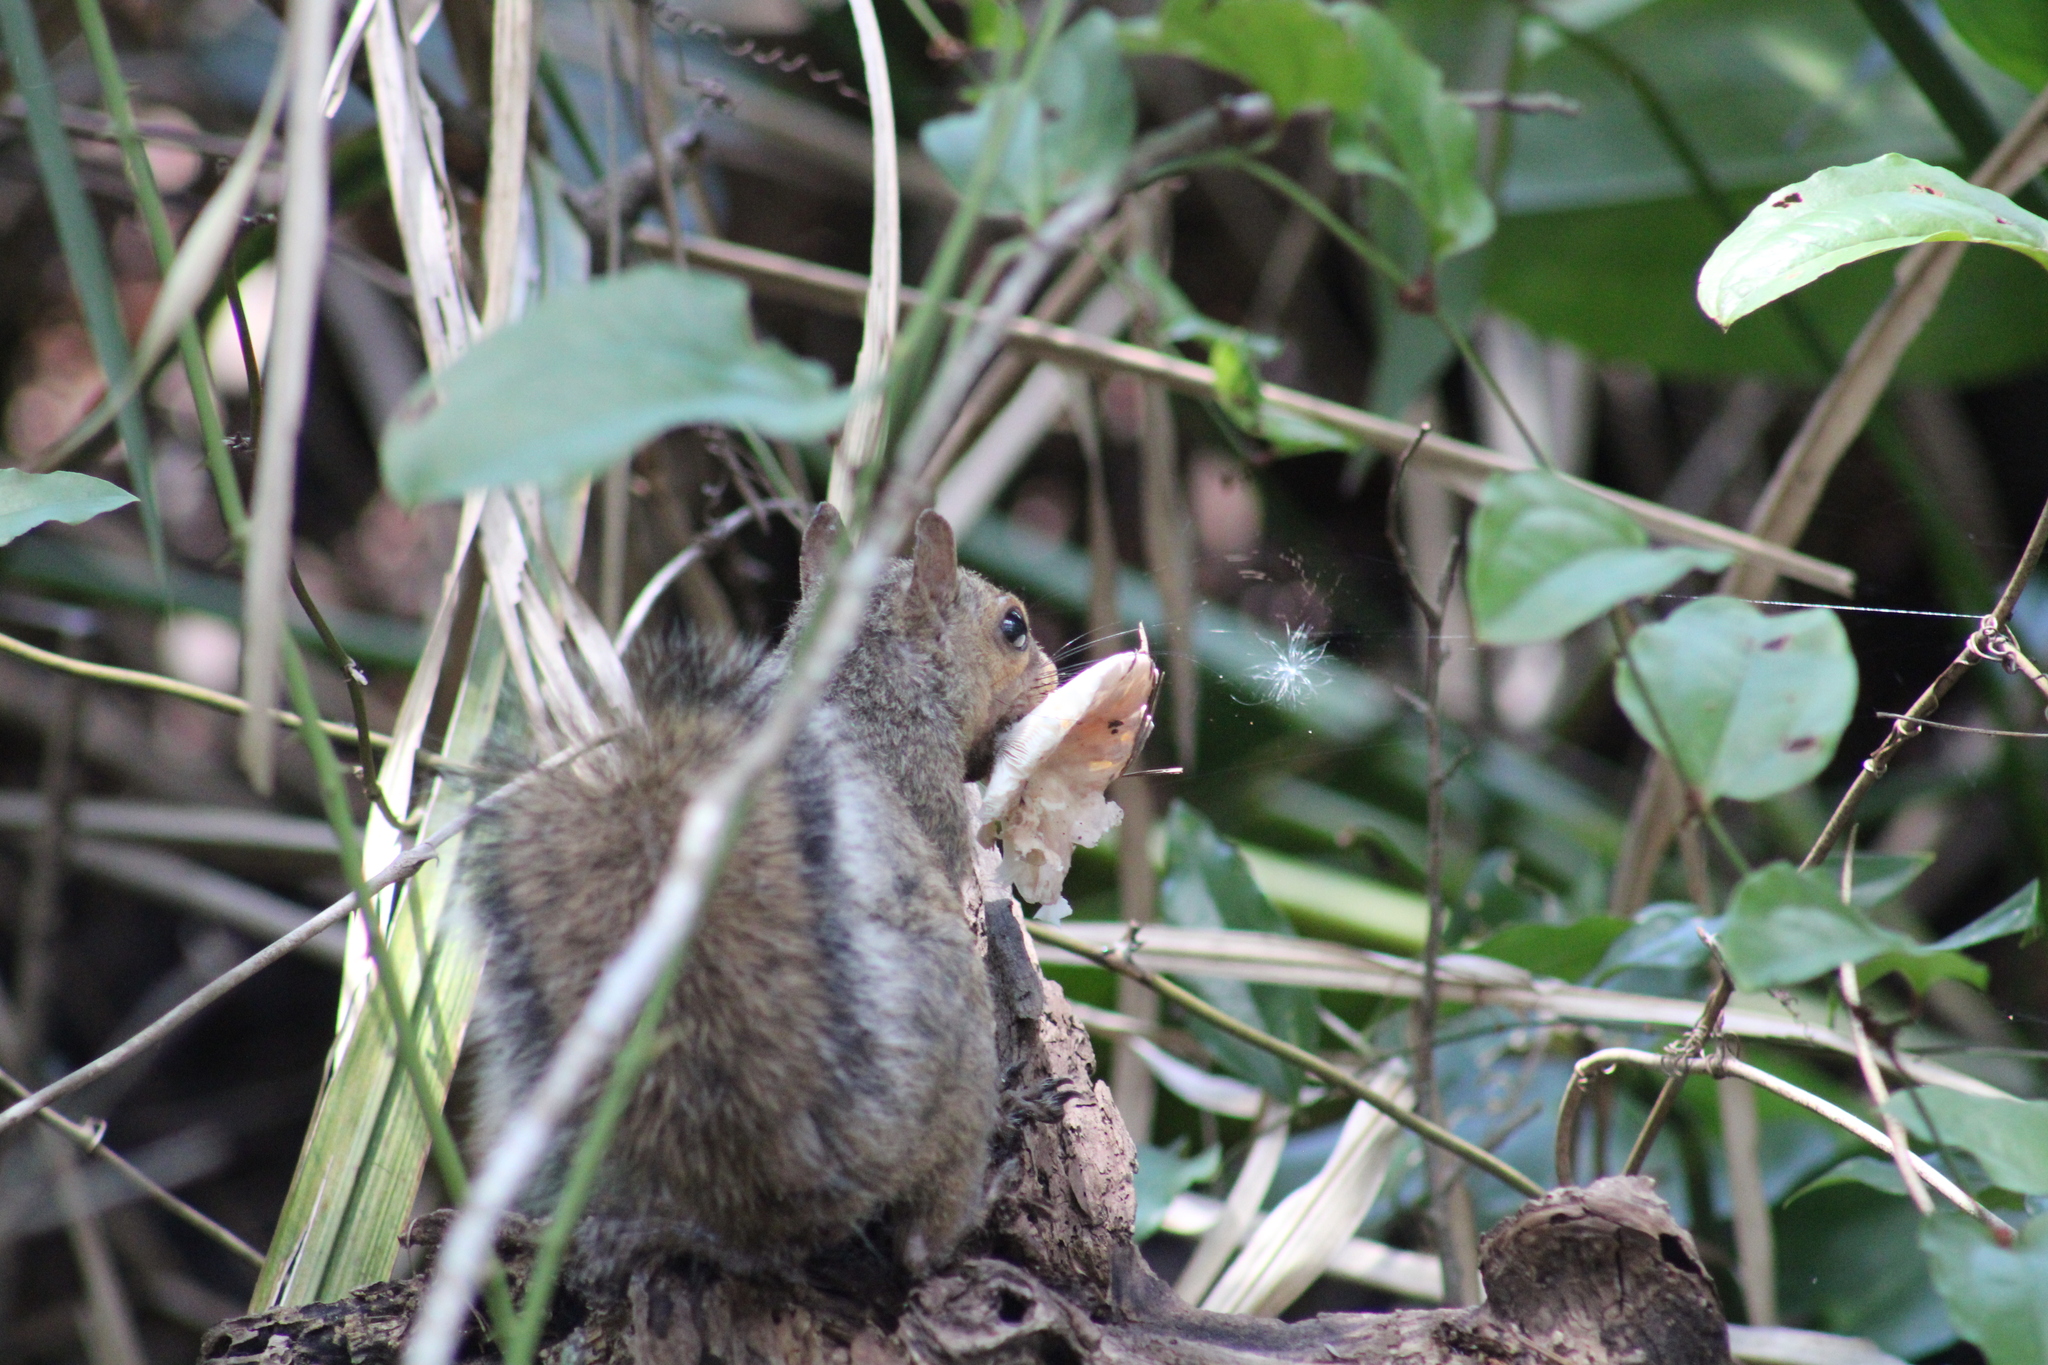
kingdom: Animalia
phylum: Chordata
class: Mammalia
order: Rodentia
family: Sciuridae
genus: Sciurus
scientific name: Sciurus carolinensis
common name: Eastern gray squirrel
